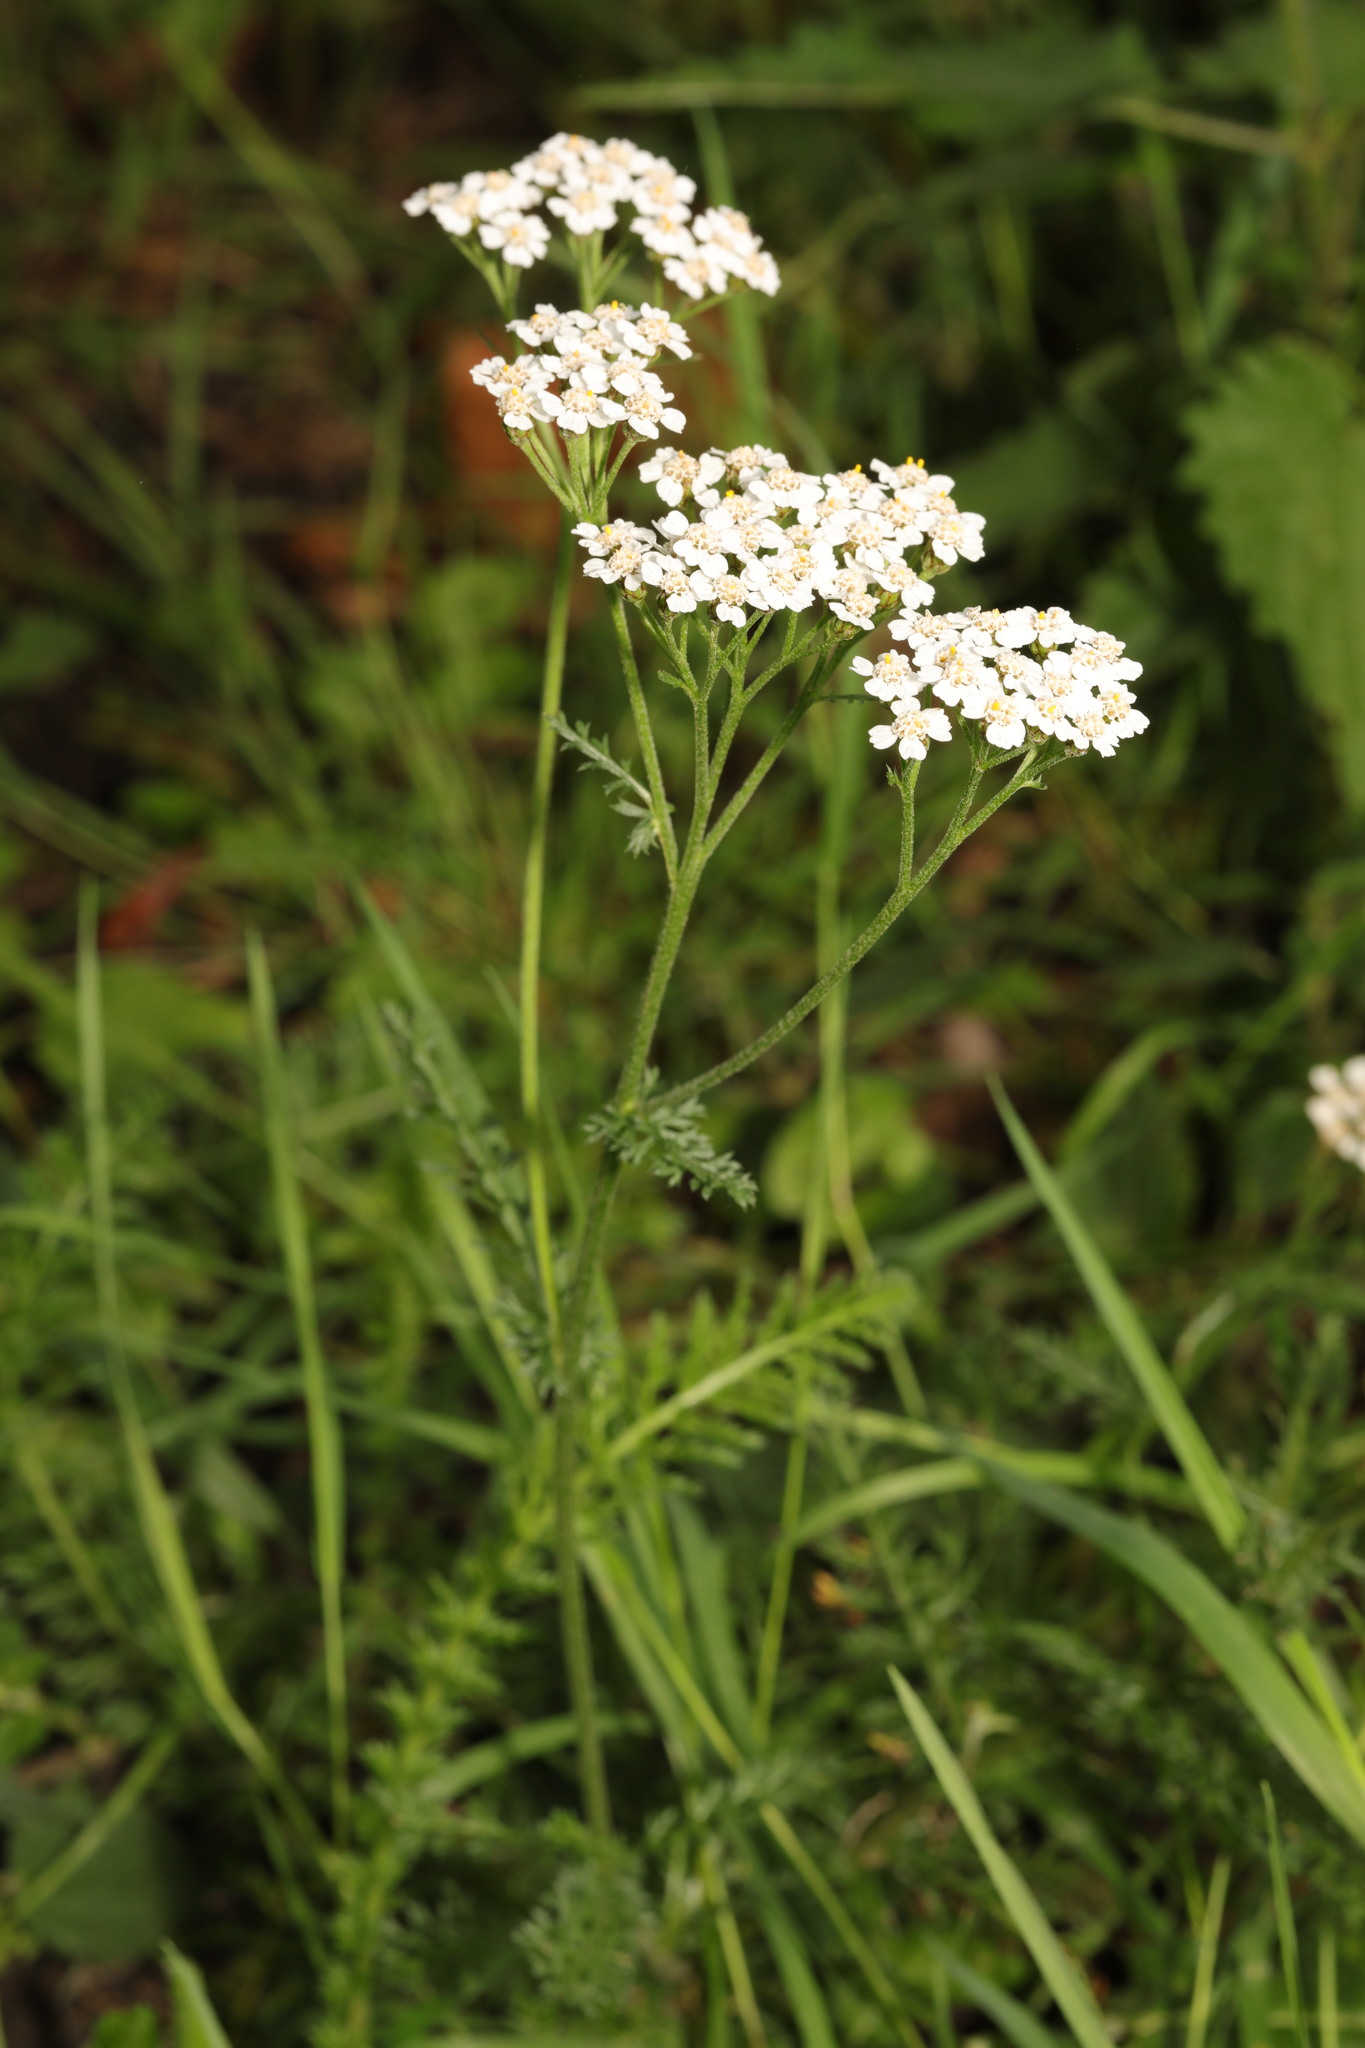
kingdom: Plantae
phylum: Tracheophyta
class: Magnoliopsida
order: Asterales
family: Asteraceae
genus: Achillea
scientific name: Achillea millefolium
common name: Yarrow
